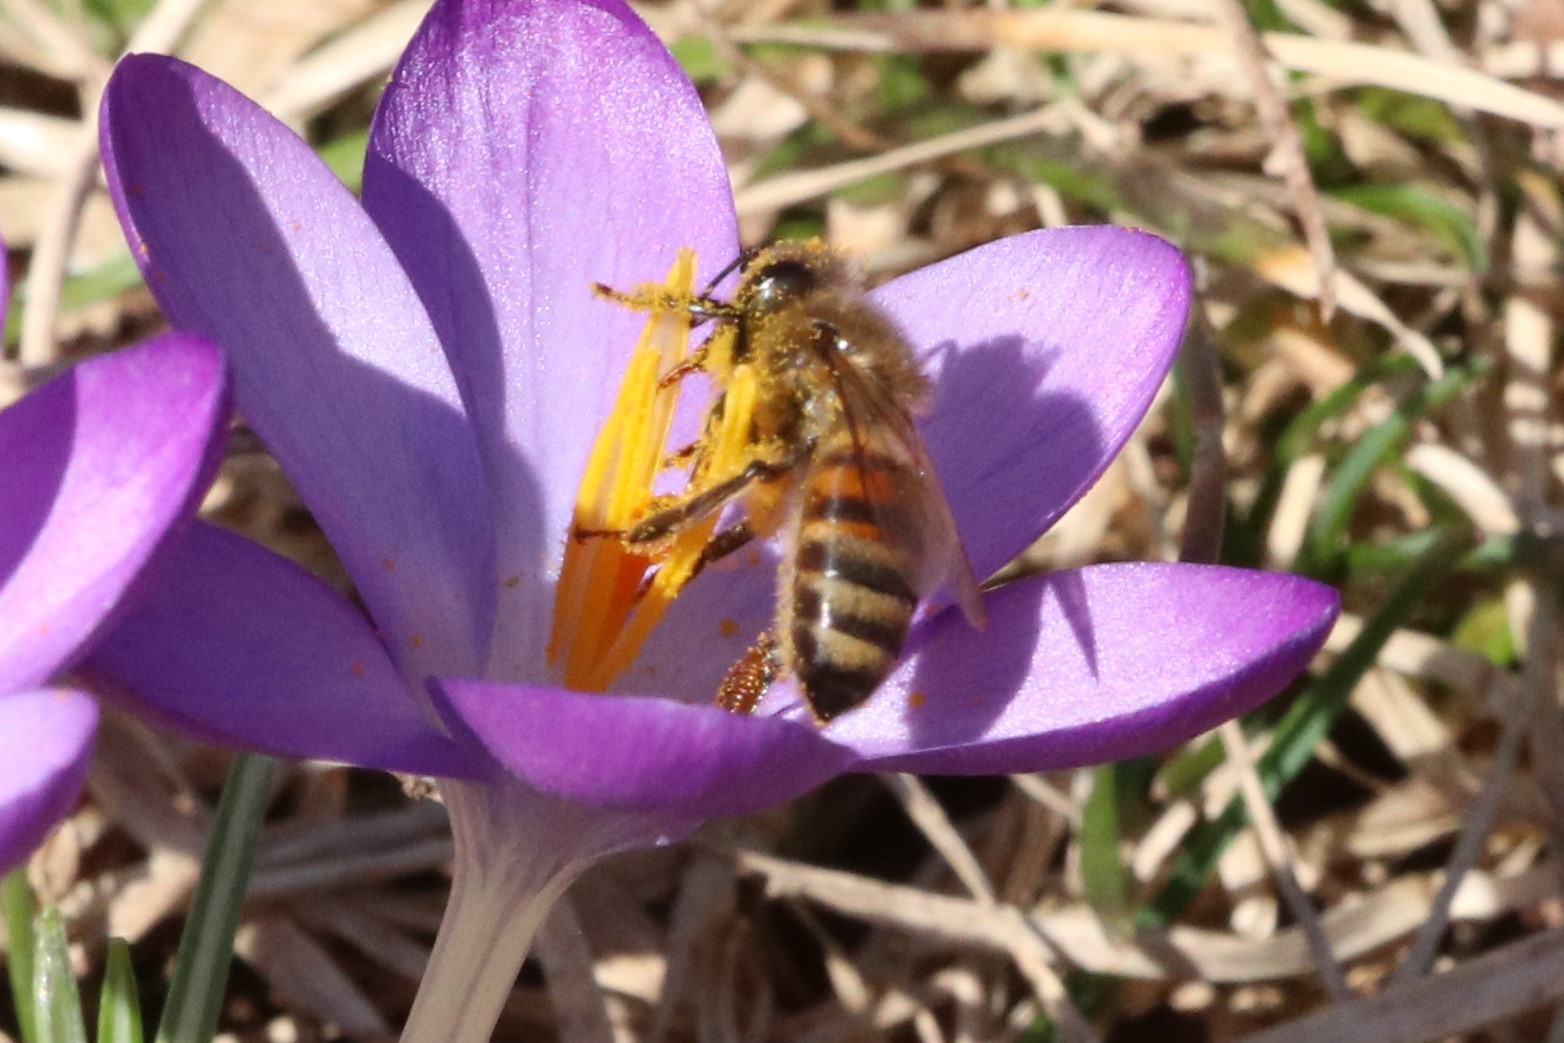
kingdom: Animalia
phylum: Arthropoda
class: Insecta
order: Hymenoptera
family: Apidae
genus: Apis
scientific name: Apis mellifera
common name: Honey bee
